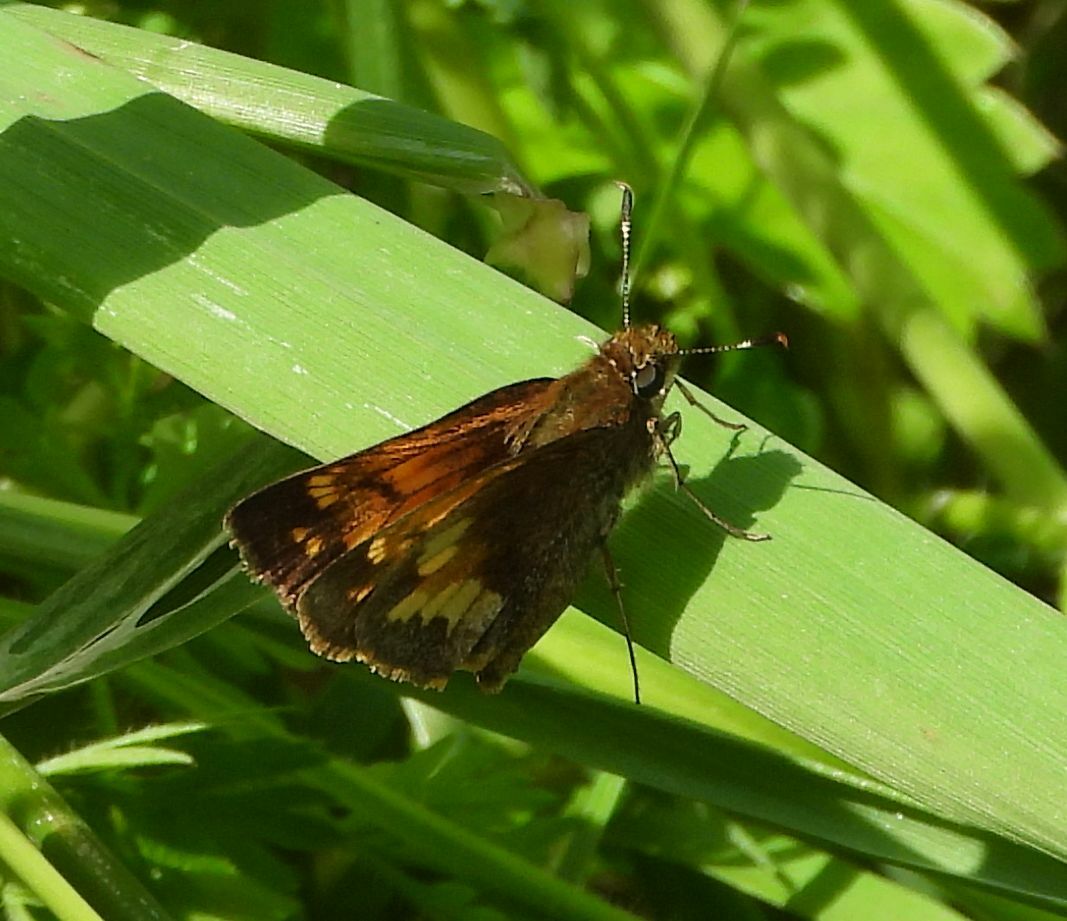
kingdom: Animalia
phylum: Arthropoda
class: Insecta
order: Lepidoptera
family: Hesperiidae
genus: Lon
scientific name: Lon hobomok
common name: Hobomok skipper
